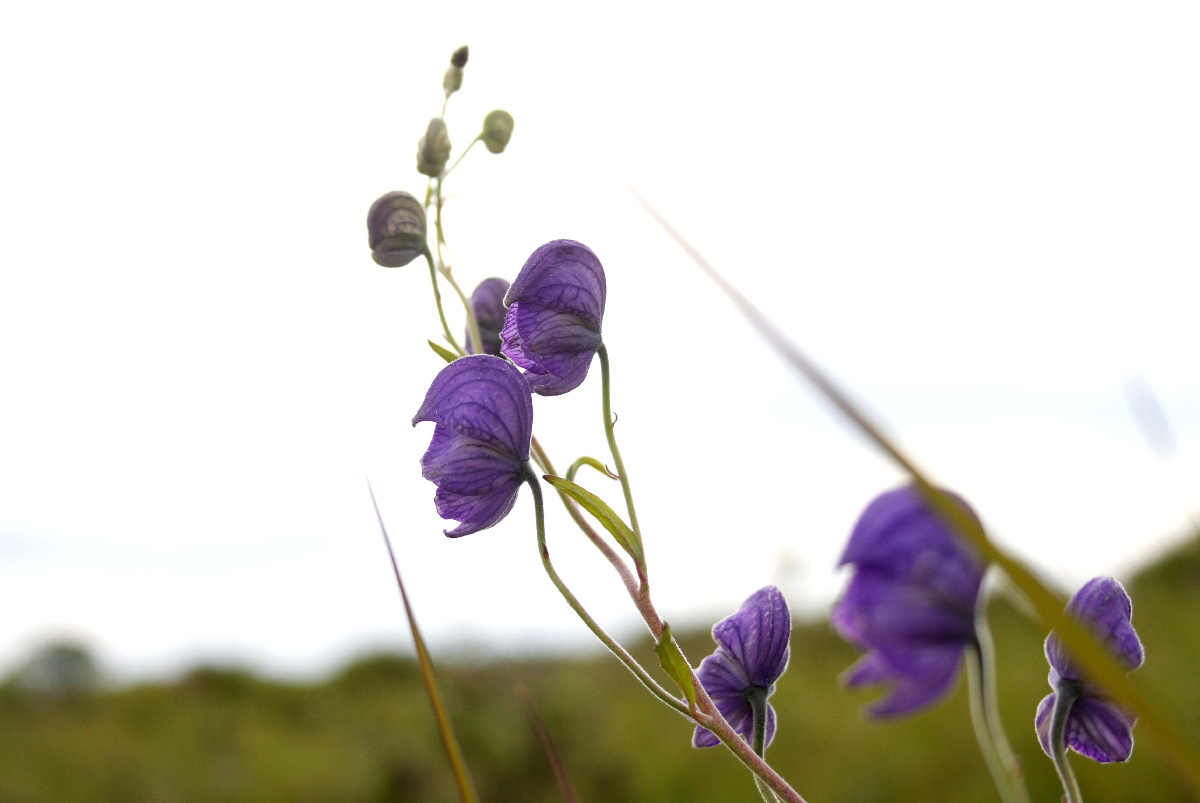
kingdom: Plantae
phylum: Tracheophyta
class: Magnoliopsida
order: Ranunculales
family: Ranunculaceae
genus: Aconitum
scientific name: Aconitum delphiniifolium
